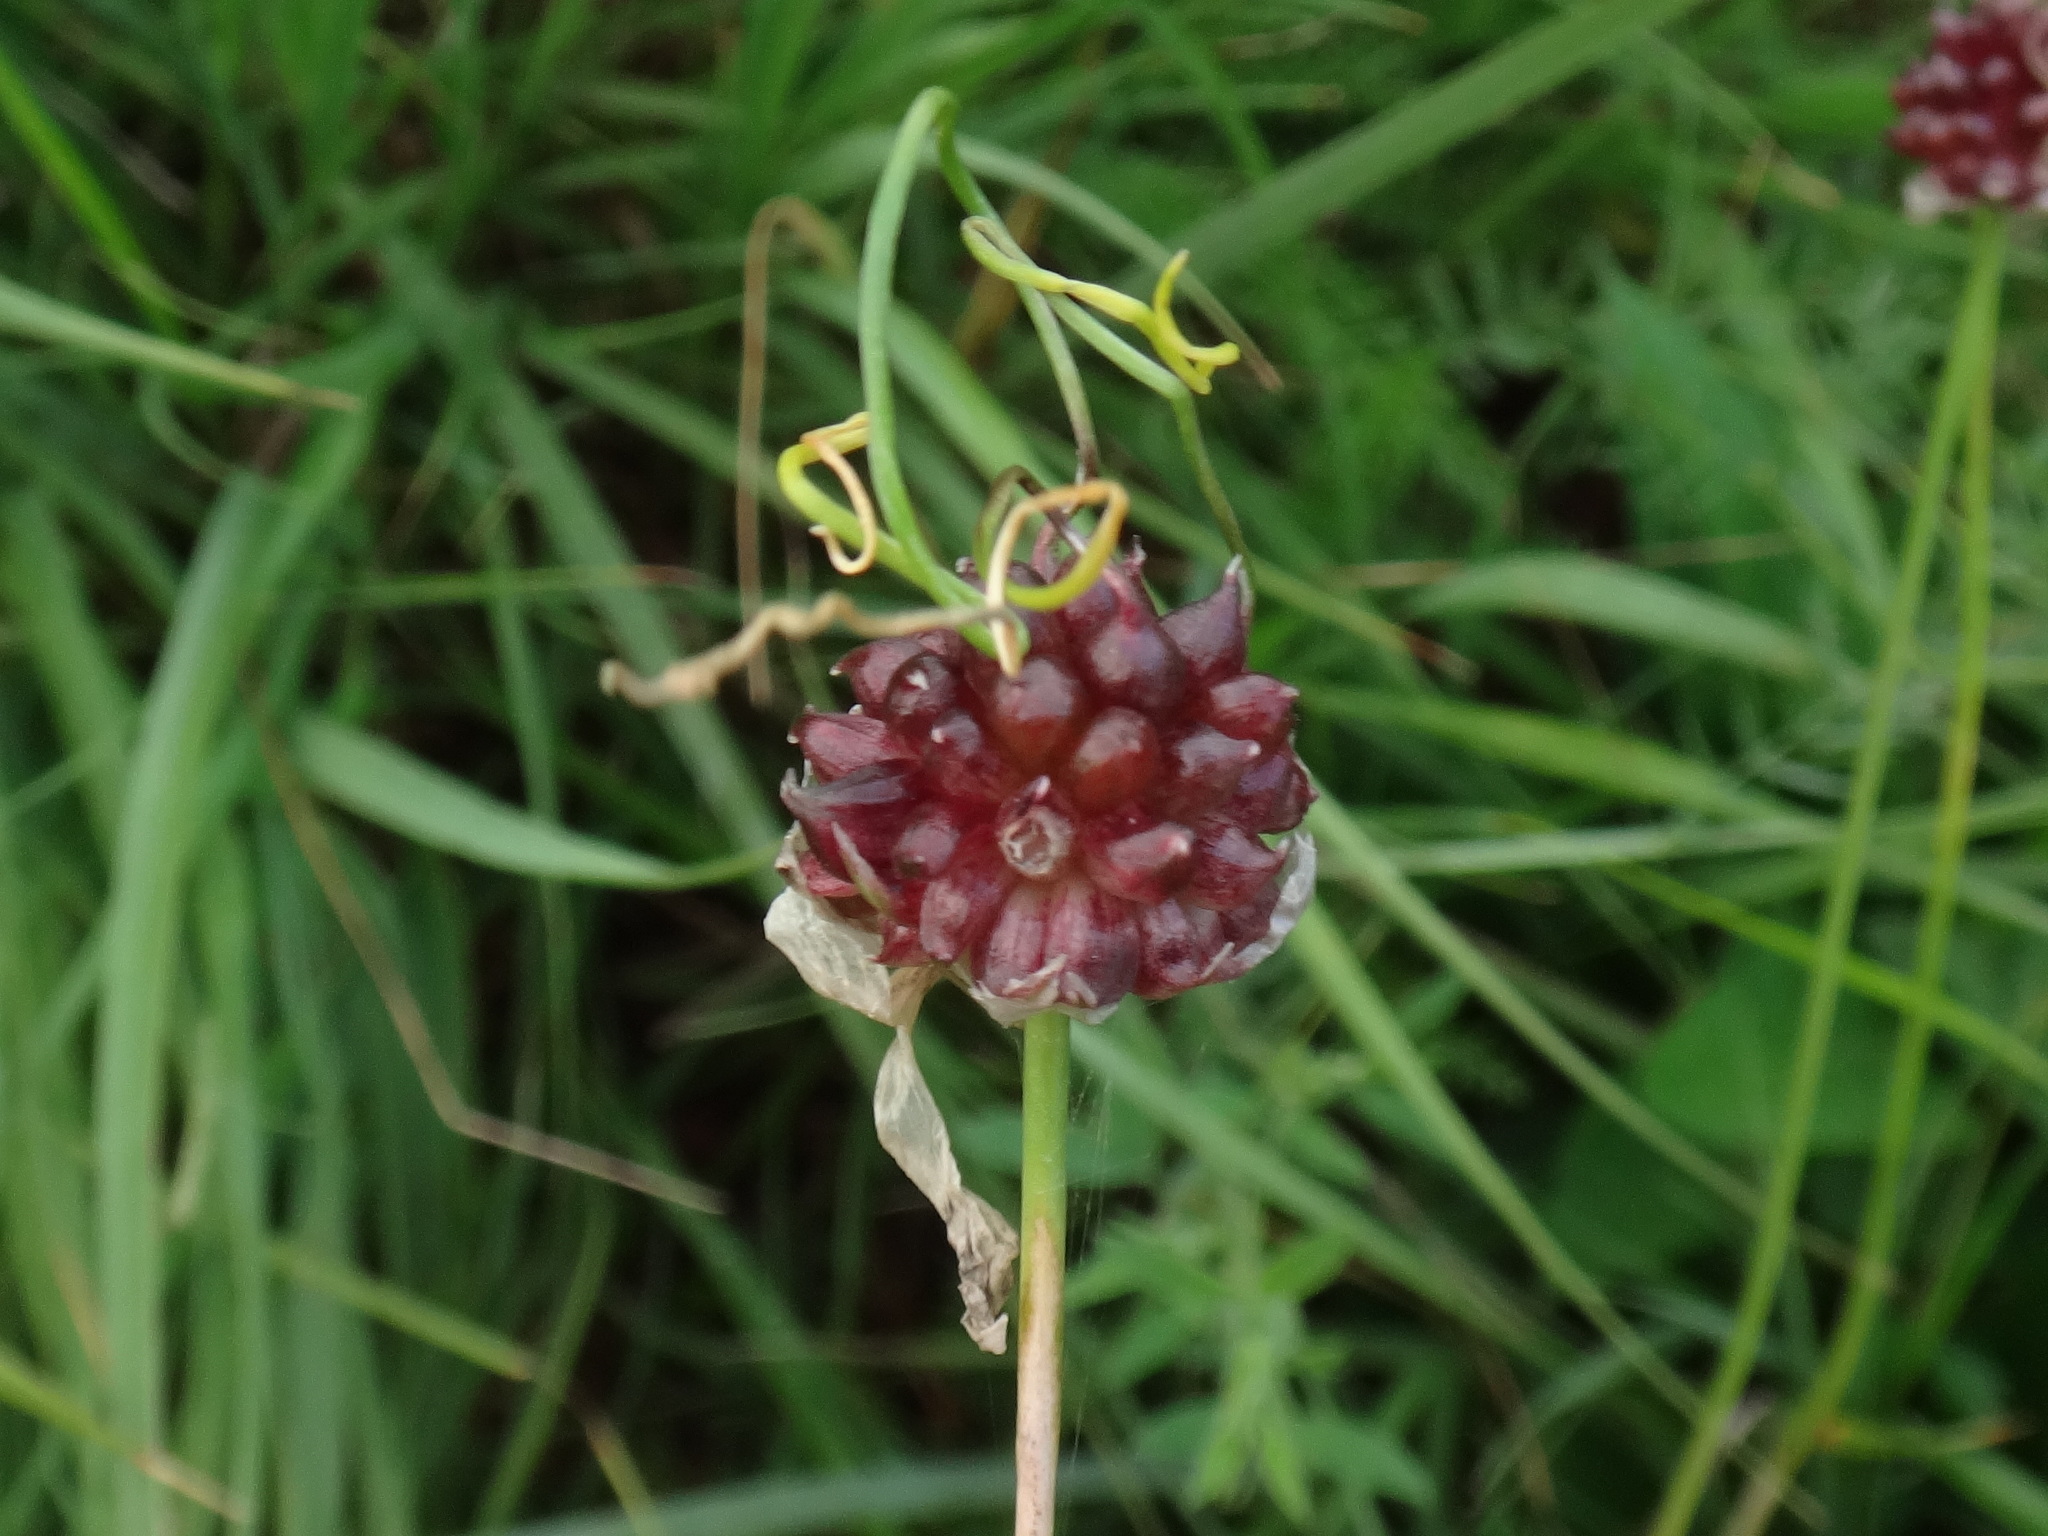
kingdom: Plantae
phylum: Tracheophyta
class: Liliopsida
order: Asparagales
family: Amaryllidaceae
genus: Allium
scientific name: Allium vineale
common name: Crow garlic
